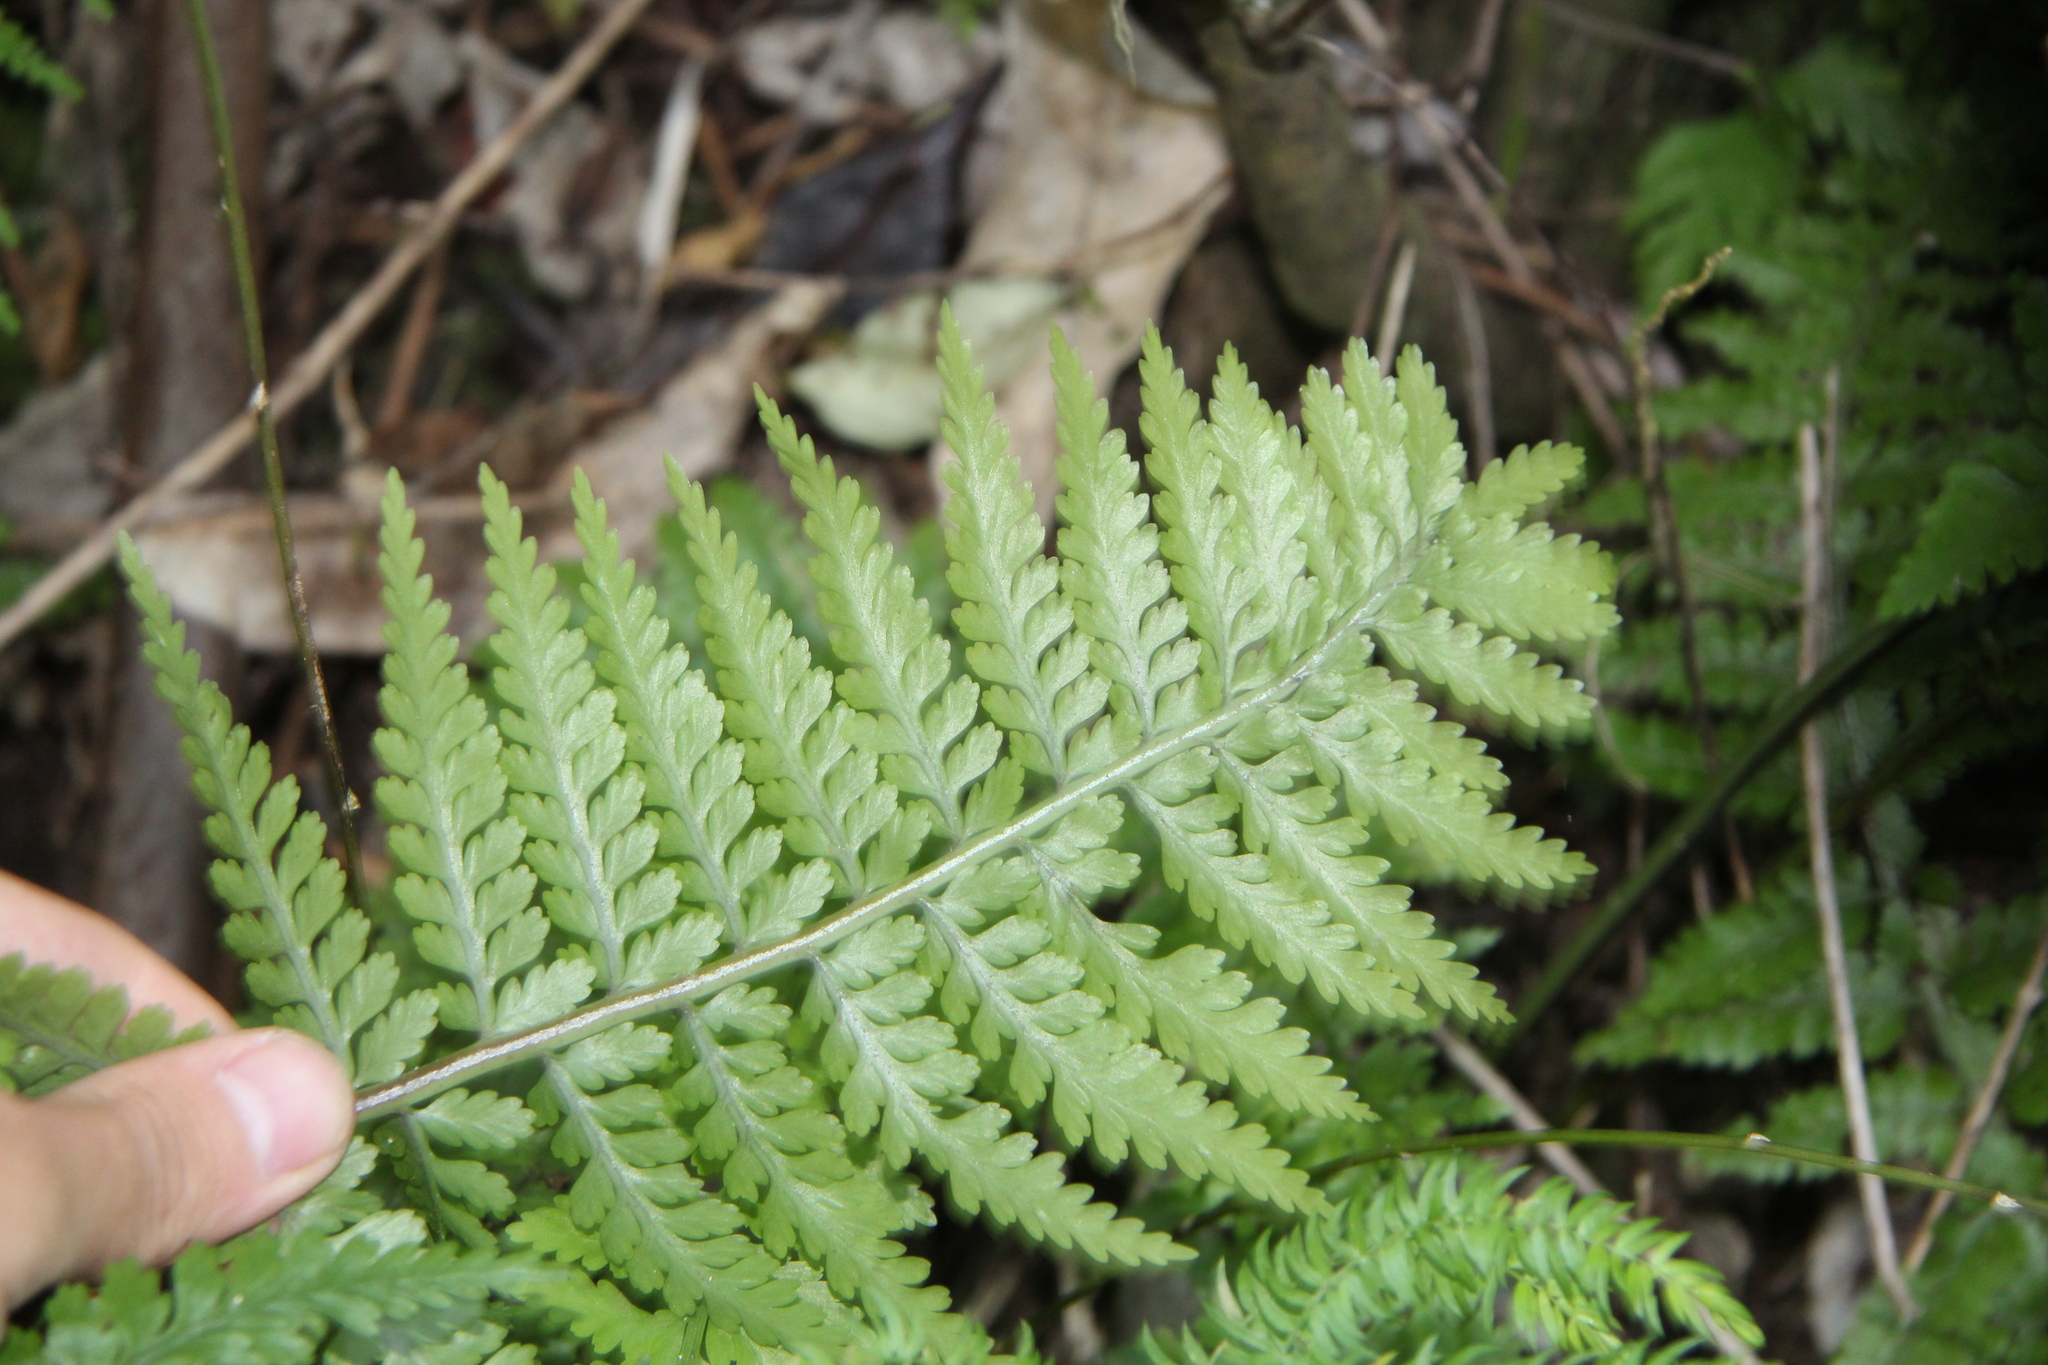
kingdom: Plantae
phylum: Tracheophyta
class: Polypodiopsida
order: Polypodiales
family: Aspleniaceae
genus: Asplenium
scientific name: Asplenium bulbiferum
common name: Mother fern
